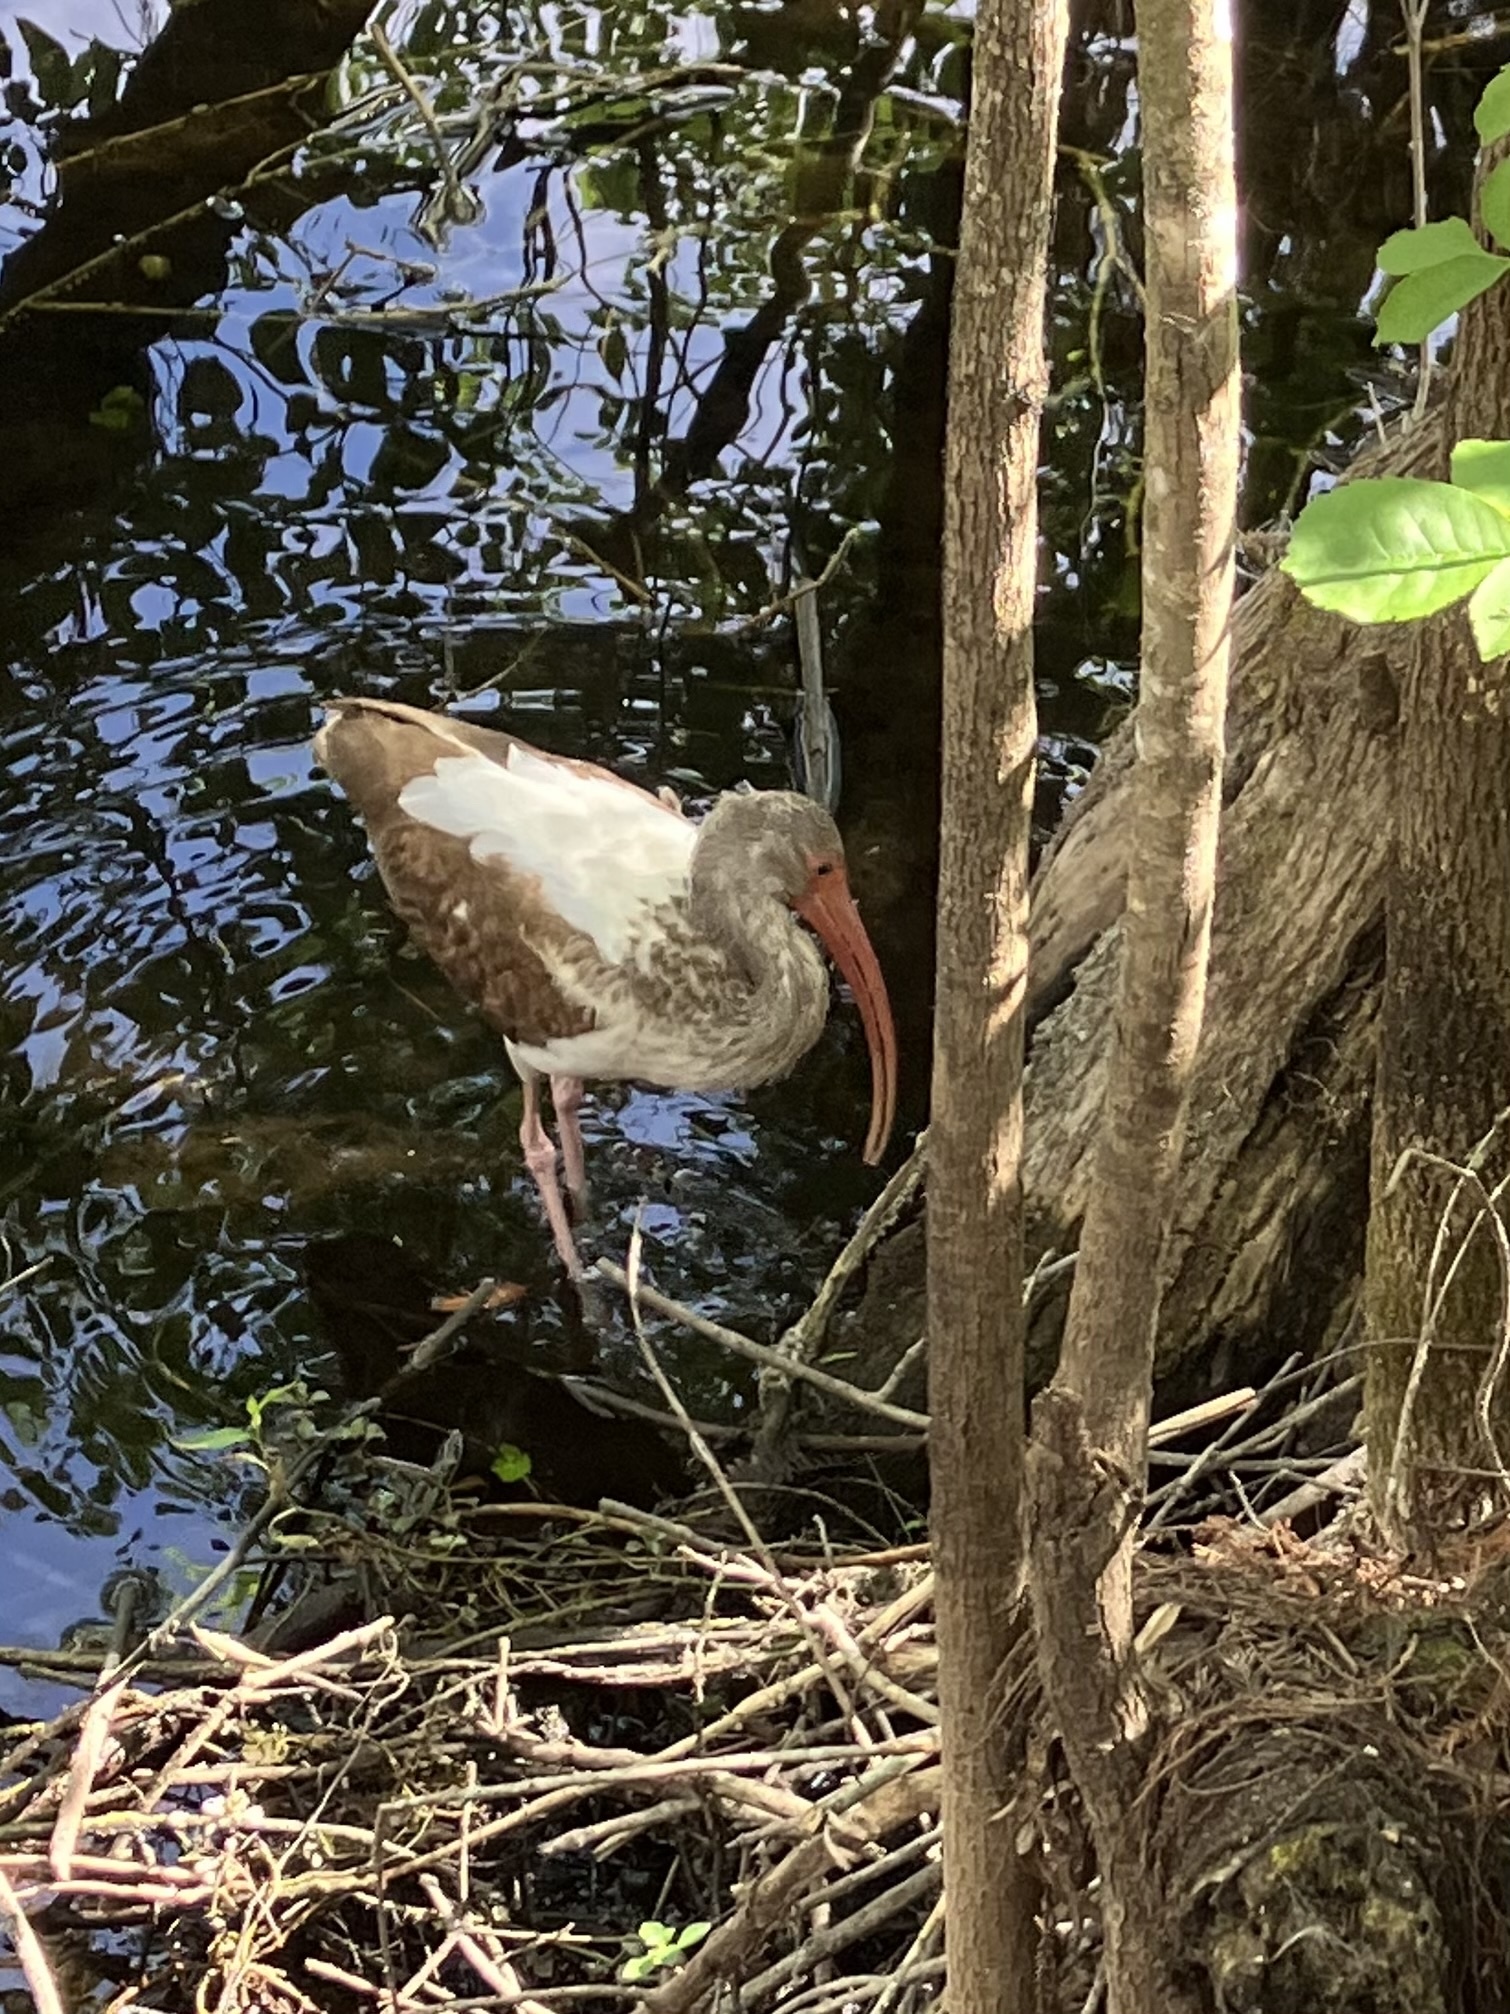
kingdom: Animalia
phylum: Chordata
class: Aves
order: Pelecaniformes
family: Threskiornithidae
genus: Eudocimus
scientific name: Eudocimus albus
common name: White ibis
